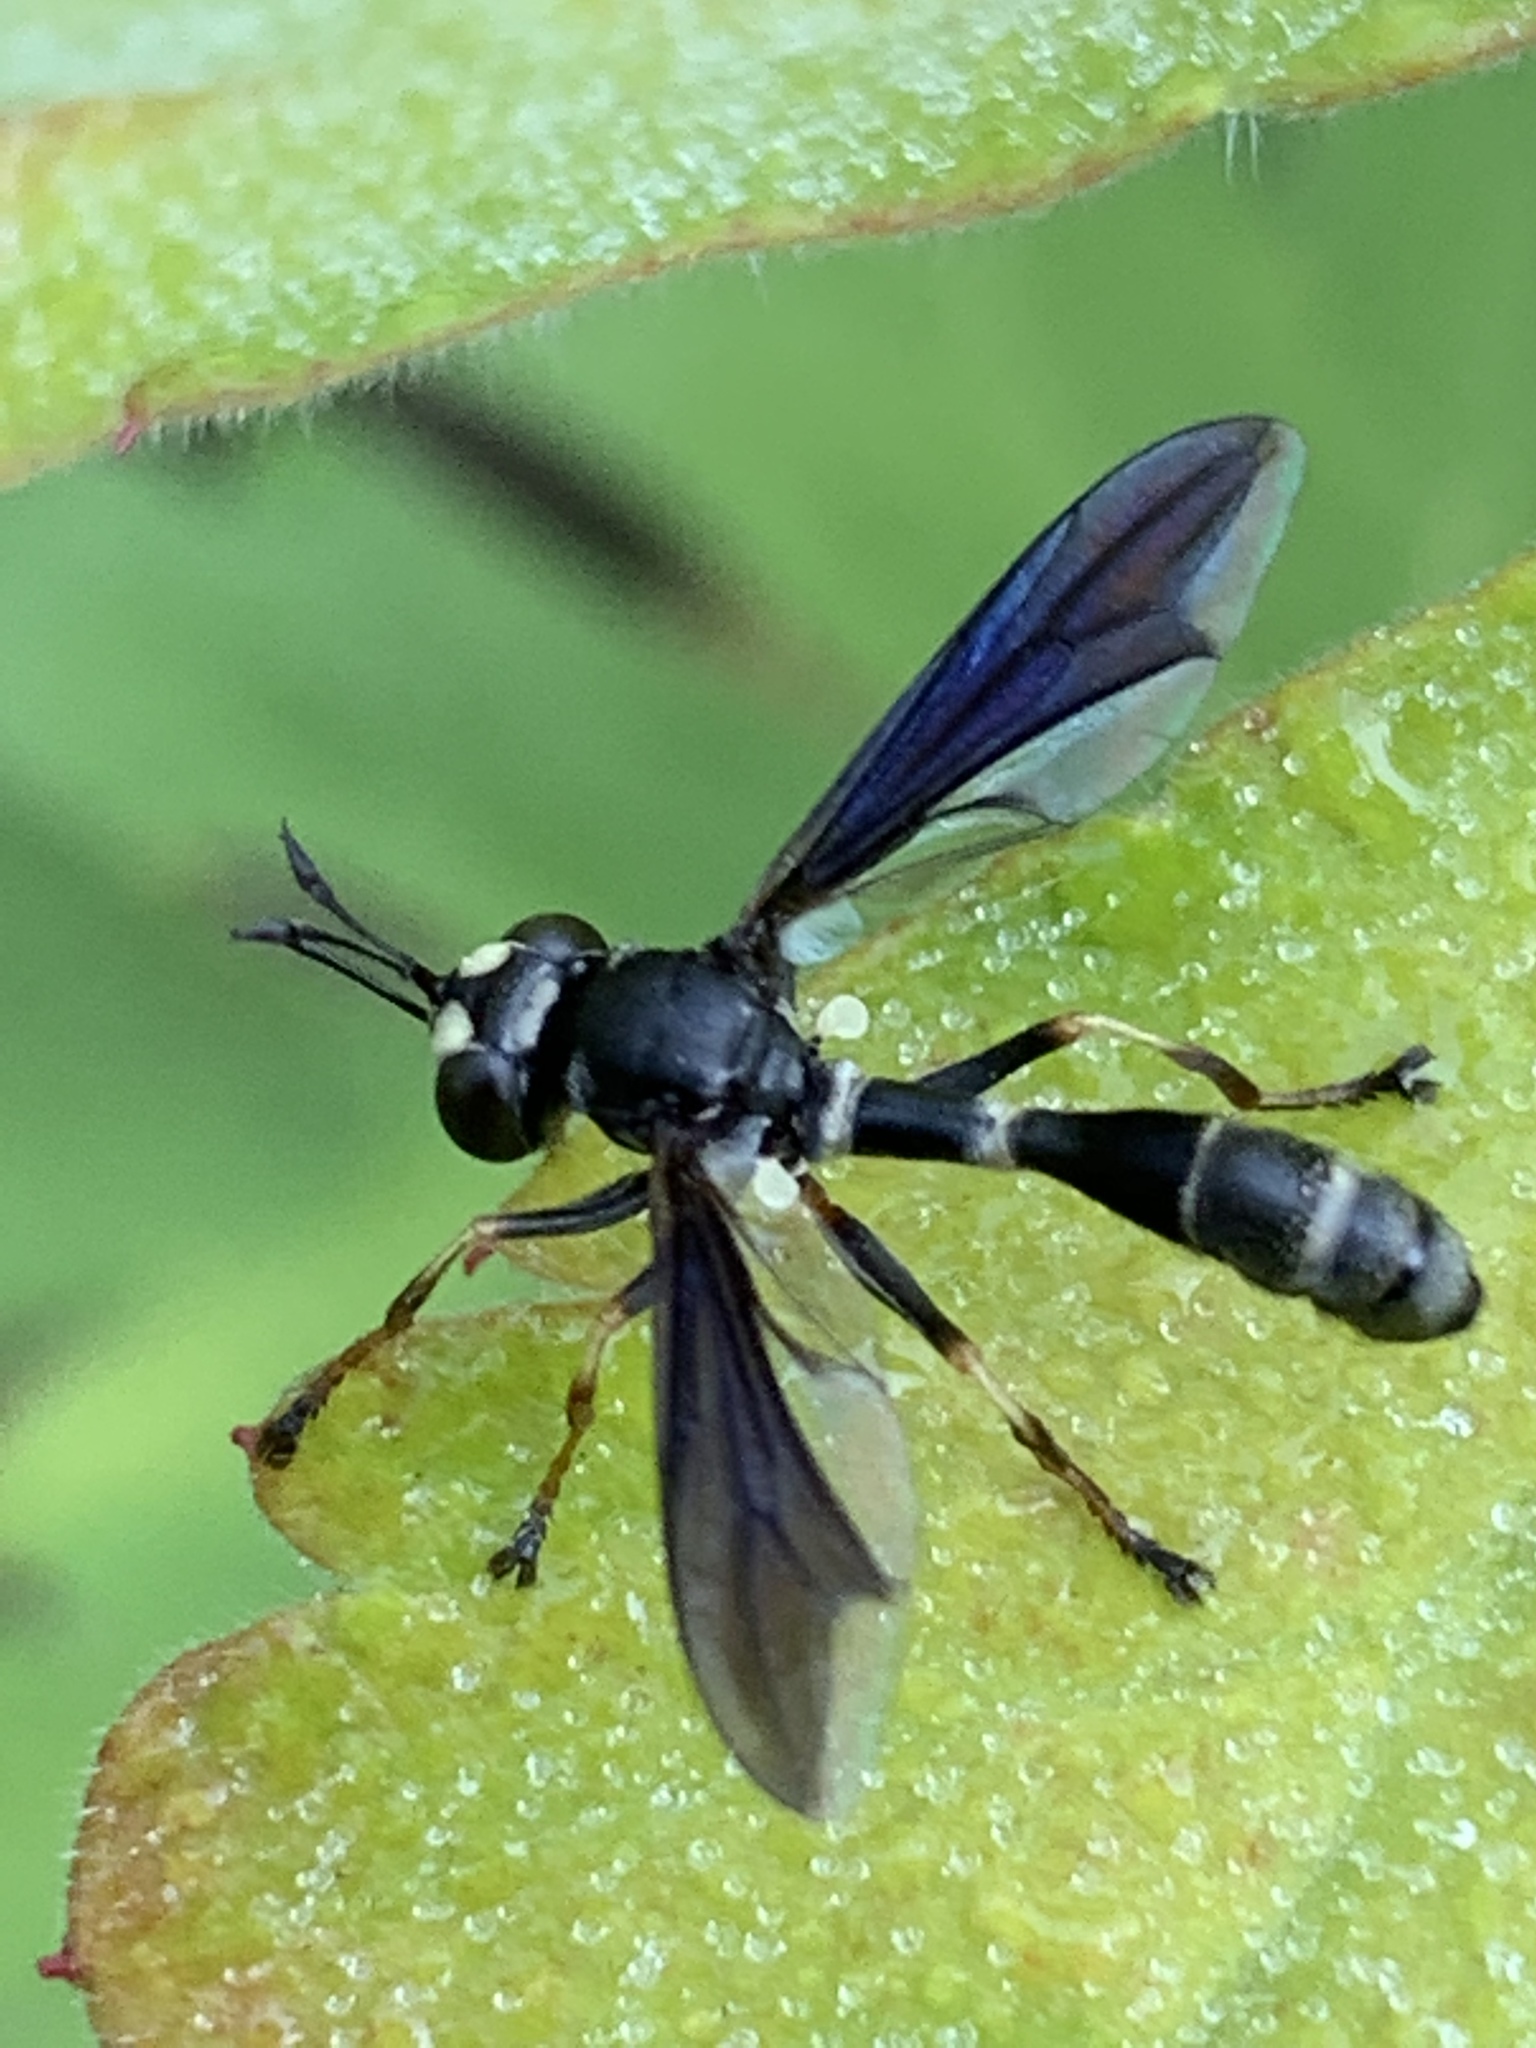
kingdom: Animalia
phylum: Arthropoda
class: Insecta
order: Diptera
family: Conopidae
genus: Physocephala
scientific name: Physocephala tibialis
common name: Common eastern physocephala
